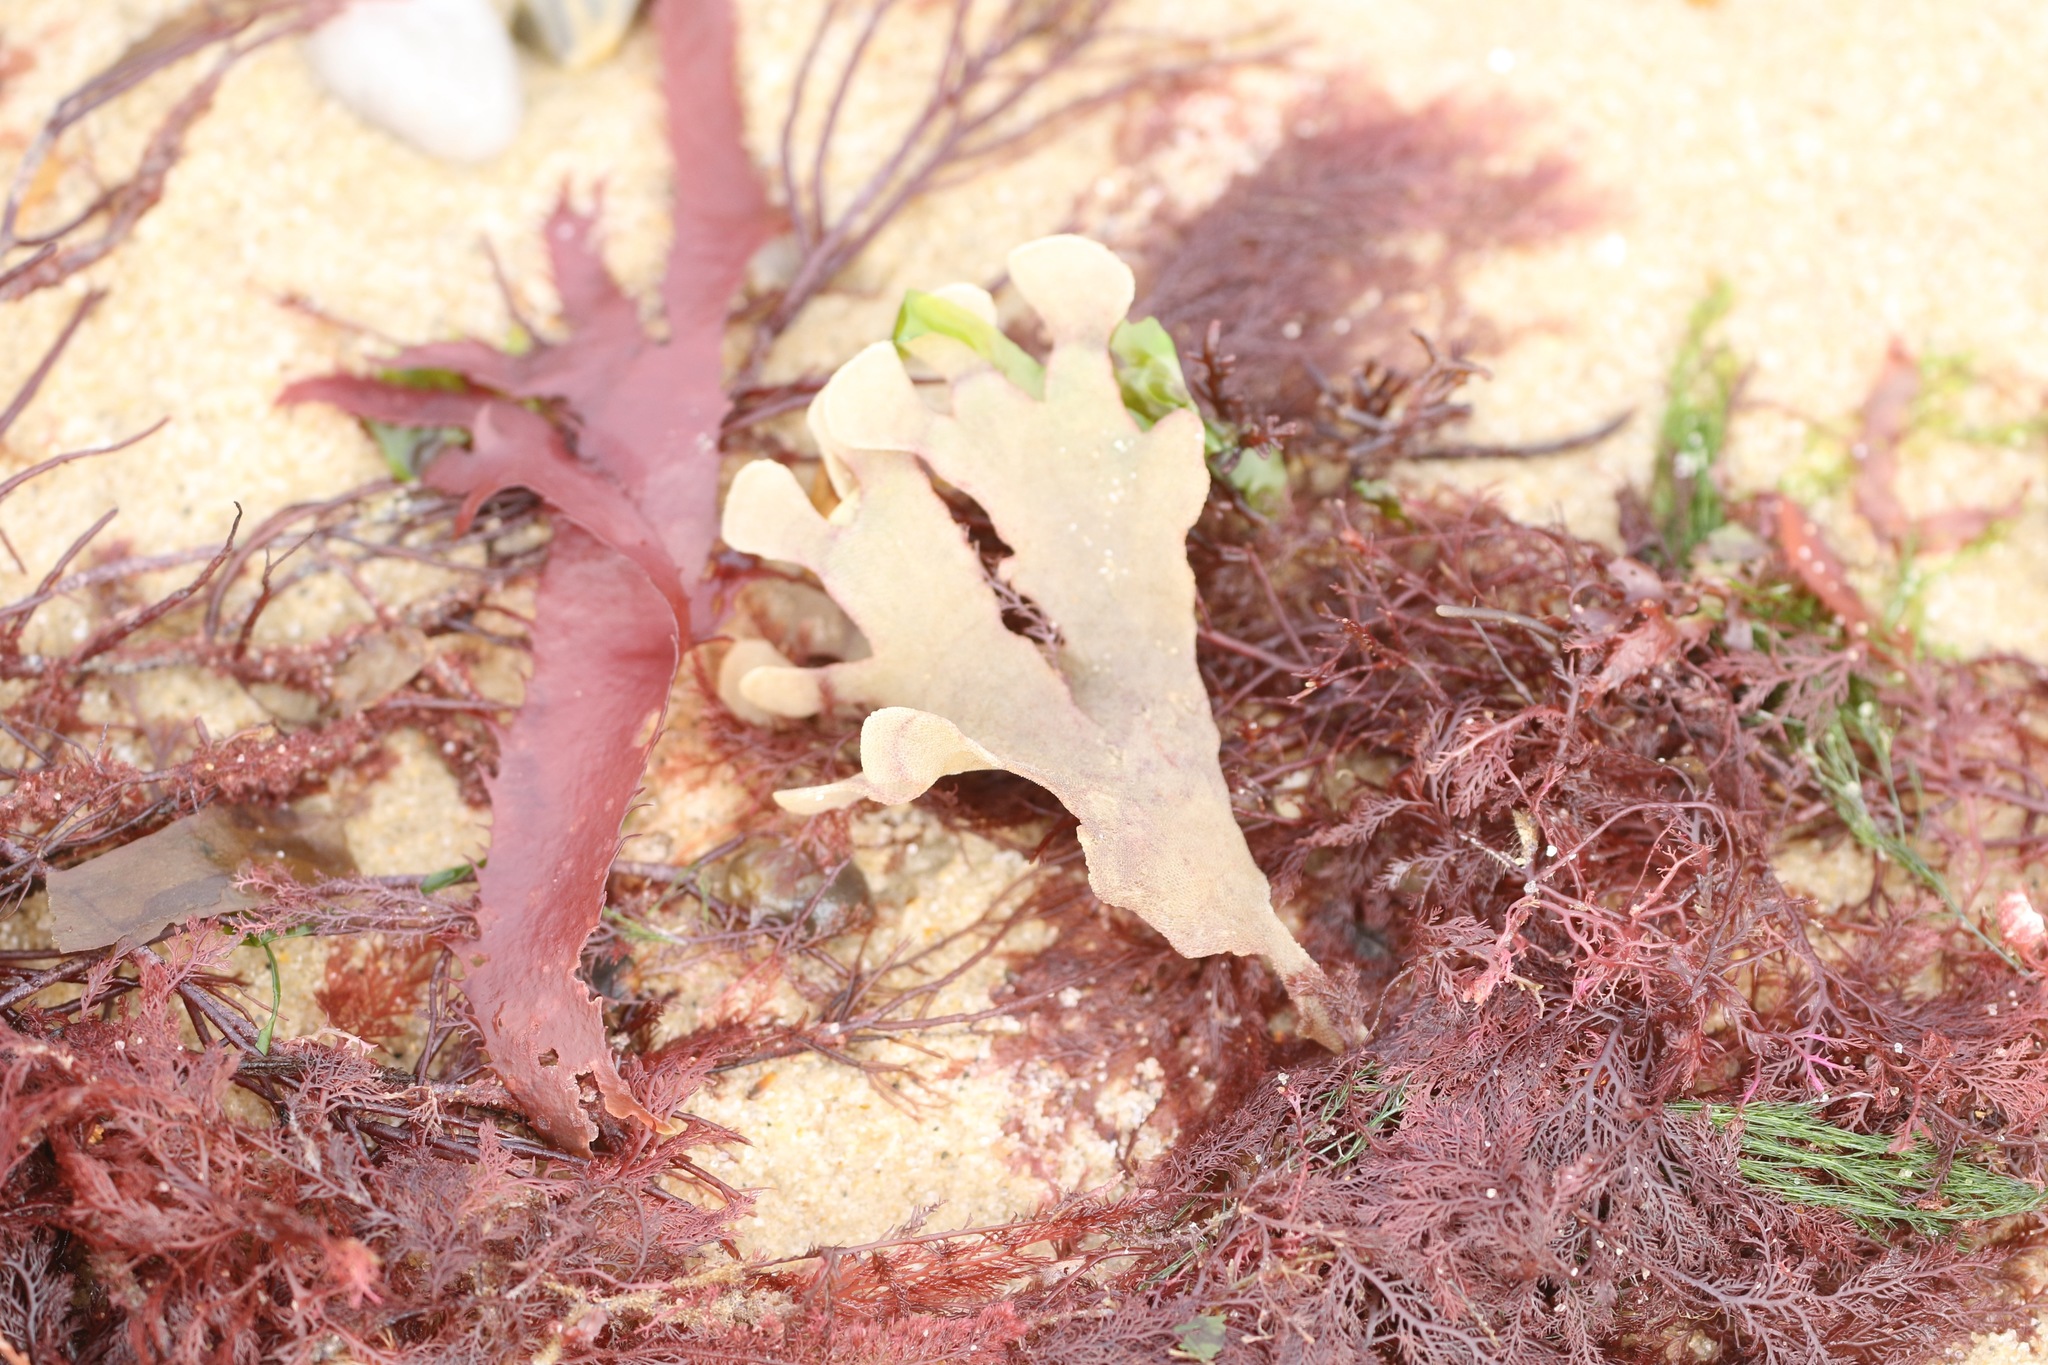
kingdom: Animalia
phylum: Bryozoa
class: Gymnolaemata
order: Cheilostomatida
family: Flustridae
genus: Flustra
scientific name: Flustra foliacea
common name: Hornwrack
